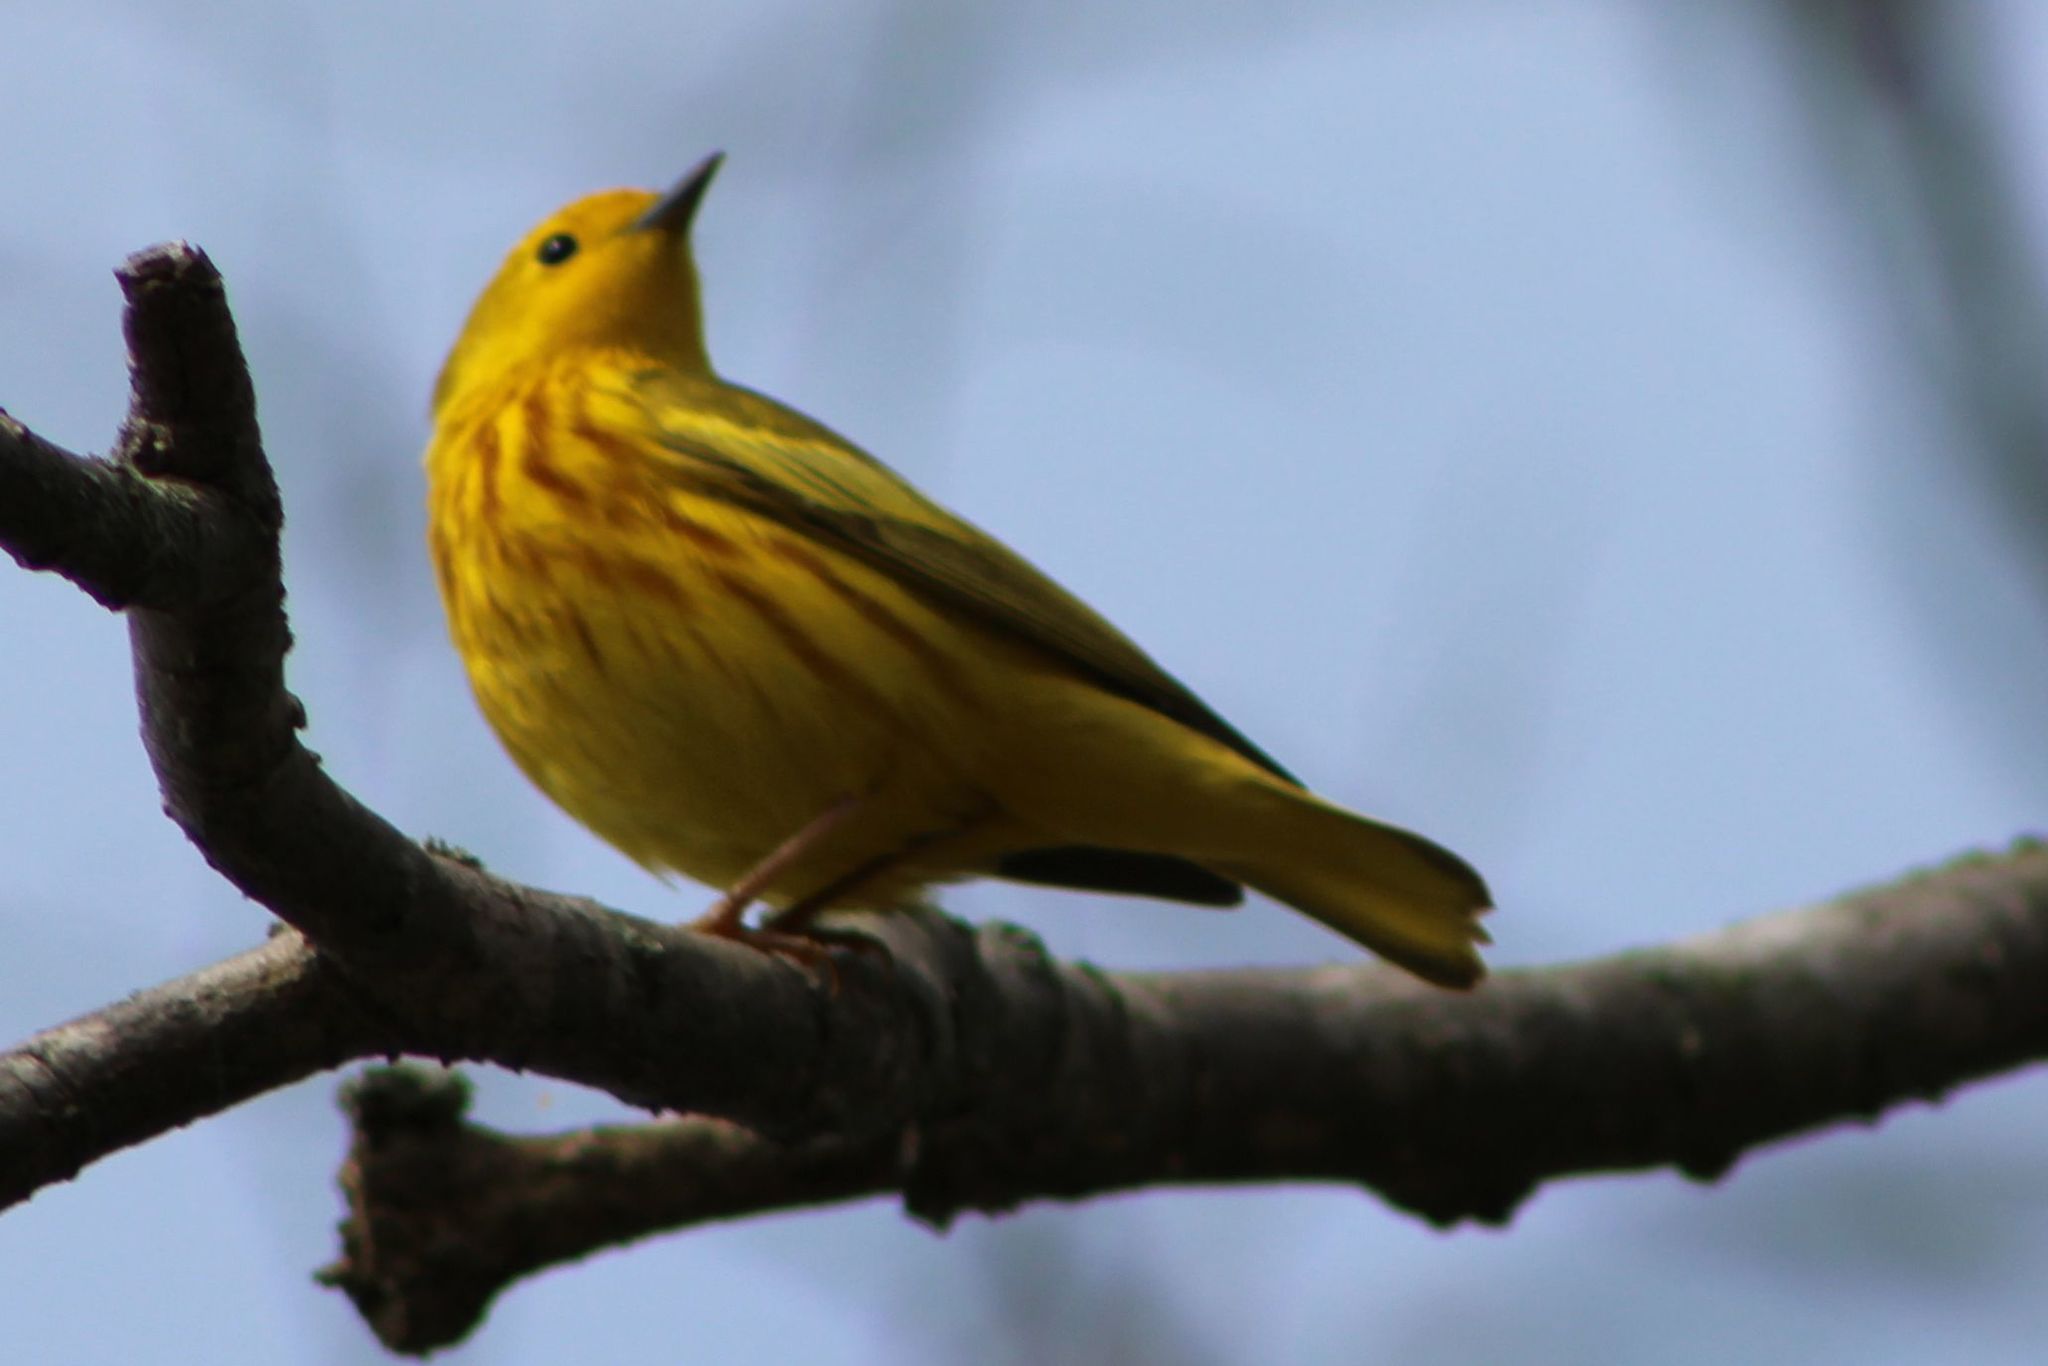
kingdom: Animalia
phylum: Chordata
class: Aves
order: Passeriformes
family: Parulidae
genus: Setophaga
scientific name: Setophaga petechia
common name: Yellow warbler
